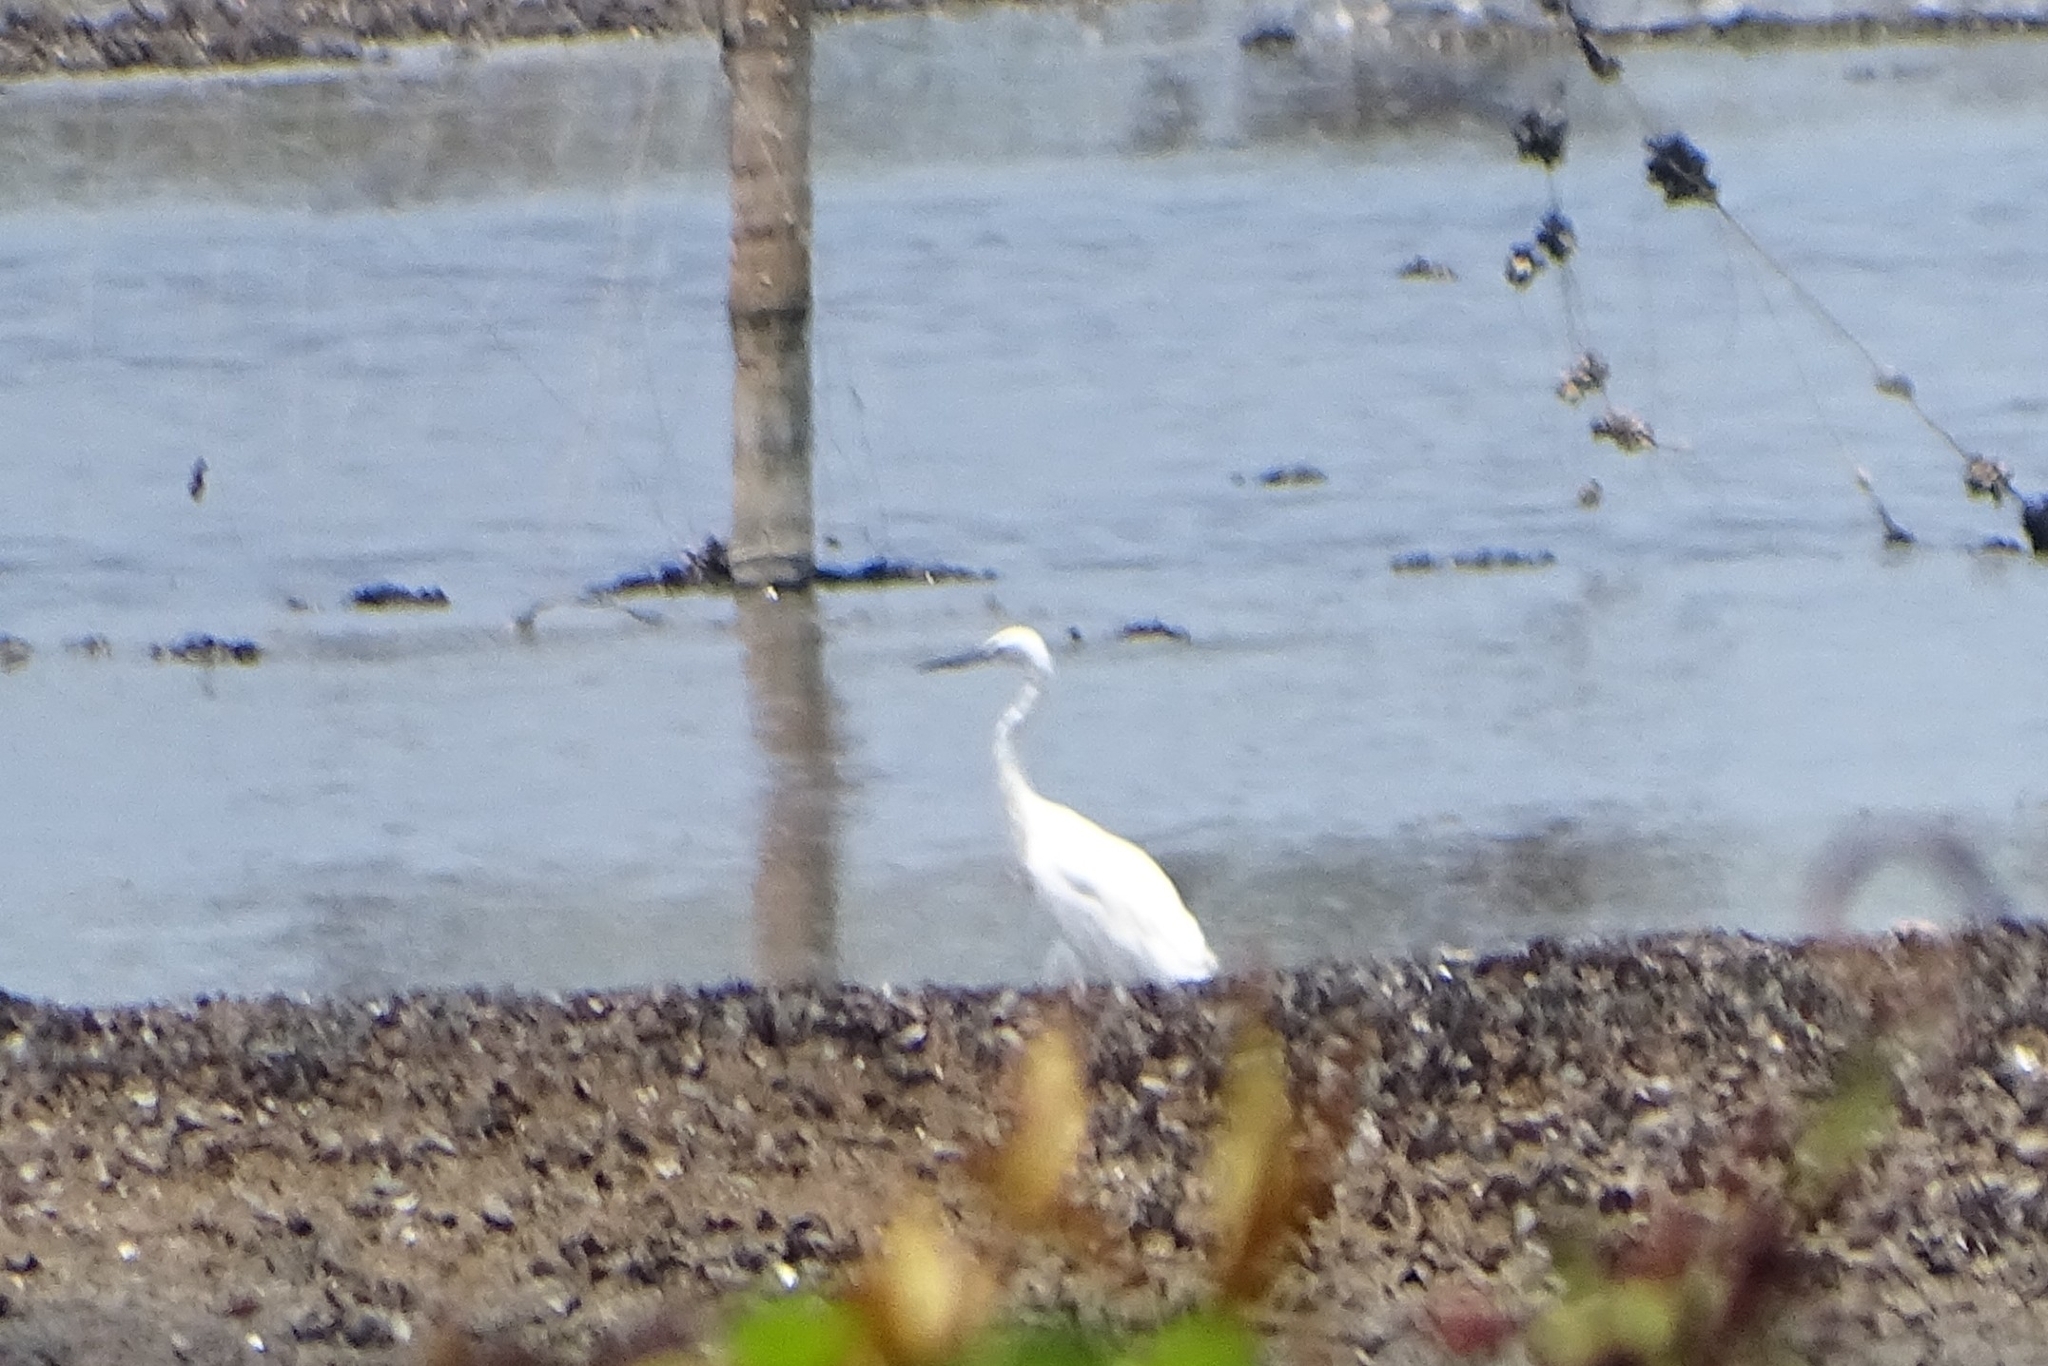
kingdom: Animalia
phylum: Chordata
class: Aves
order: Pelecaniformes
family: Ardeidae
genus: Egretta
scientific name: Egretta garzetta
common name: Little egret
